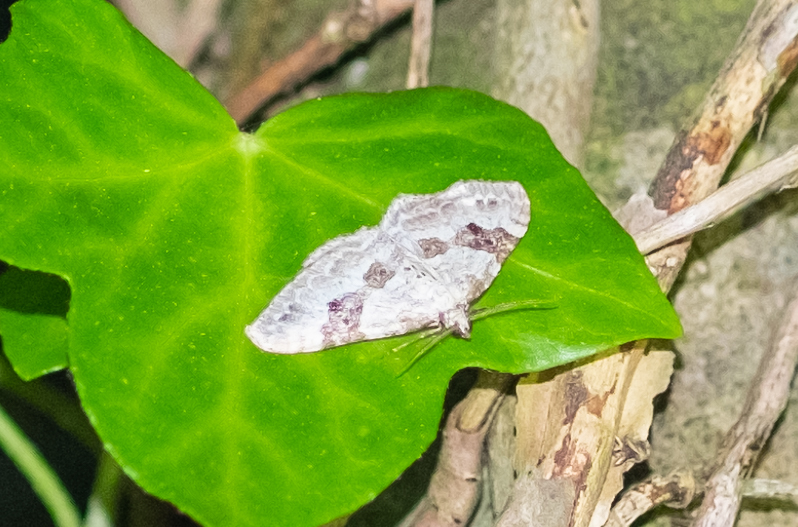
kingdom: Animalia
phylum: Arthropoda
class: Insecta
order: Lepidoptera
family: Geometridae
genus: Xanthorhoe
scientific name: Xanthorhoe montanata
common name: Silver-ground carpet
